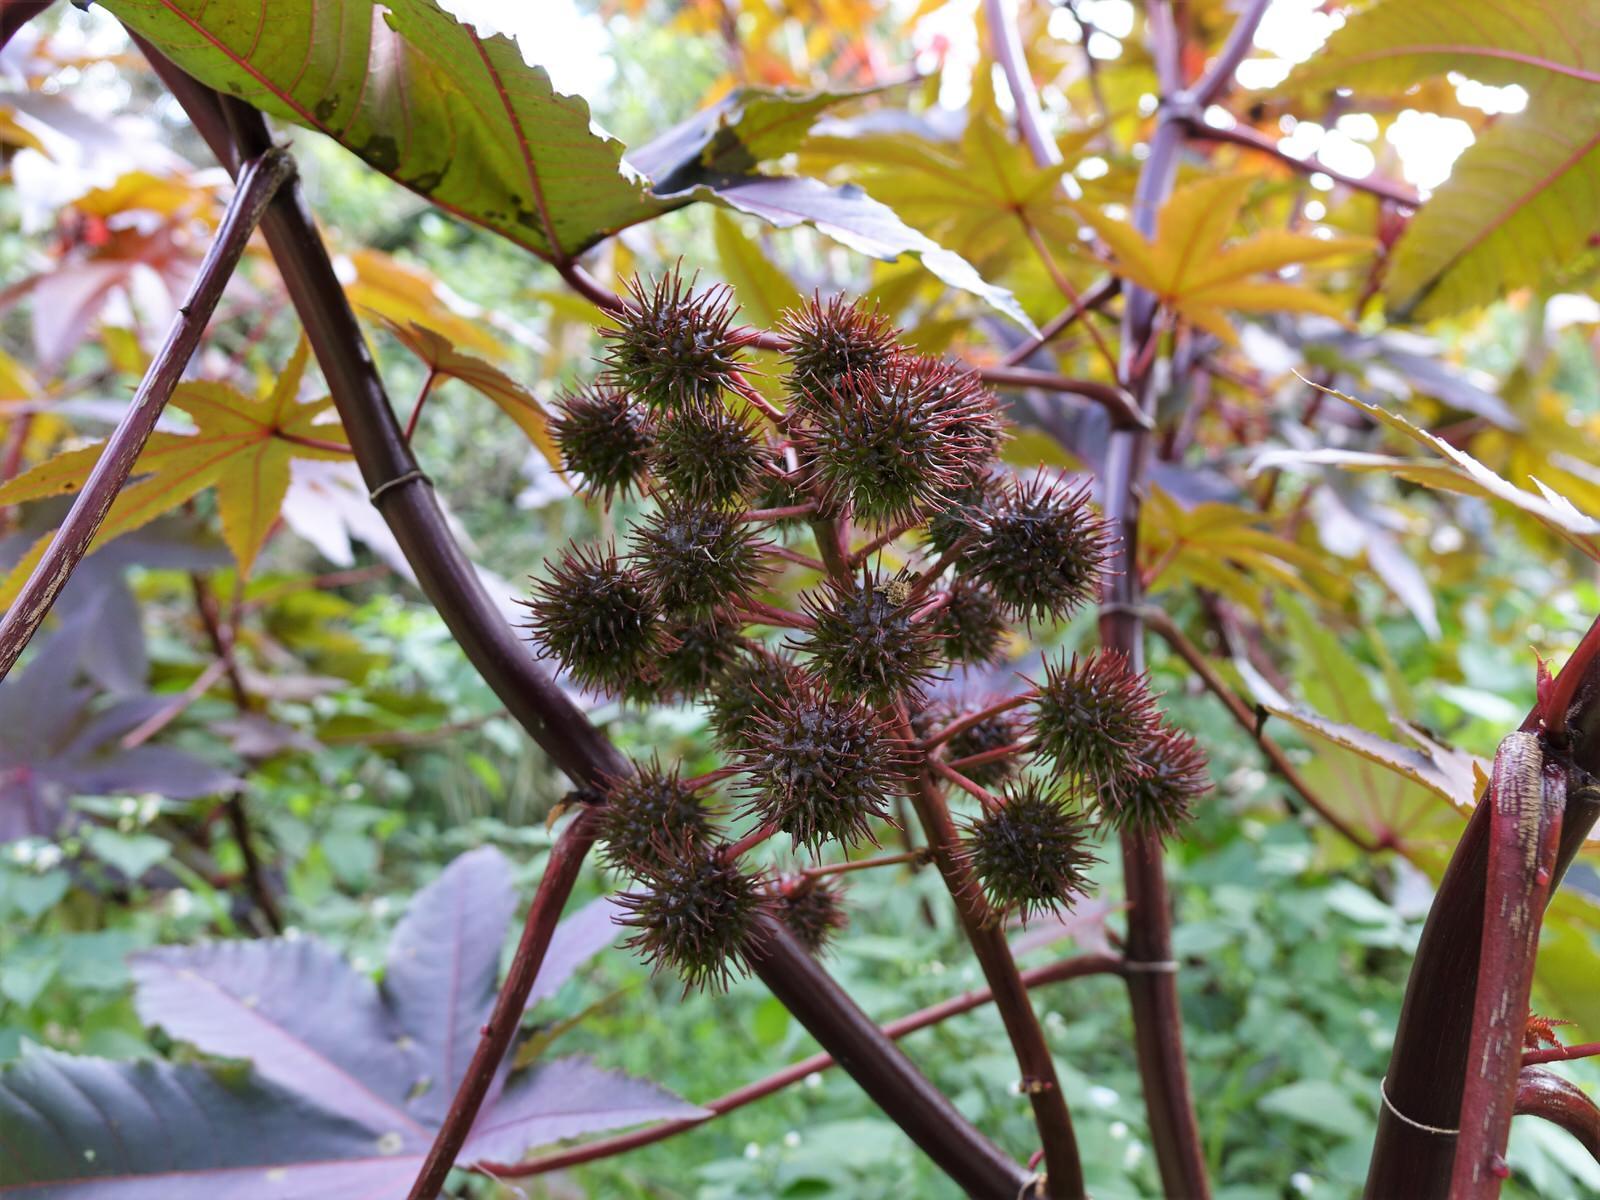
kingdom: Plantae
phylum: Tracheophyta
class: Magnoliopsida
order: Malpighiales
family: Euphorbiaceae
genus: Ricinus
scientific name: Ricinus communis
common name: Castor-oil-plant
